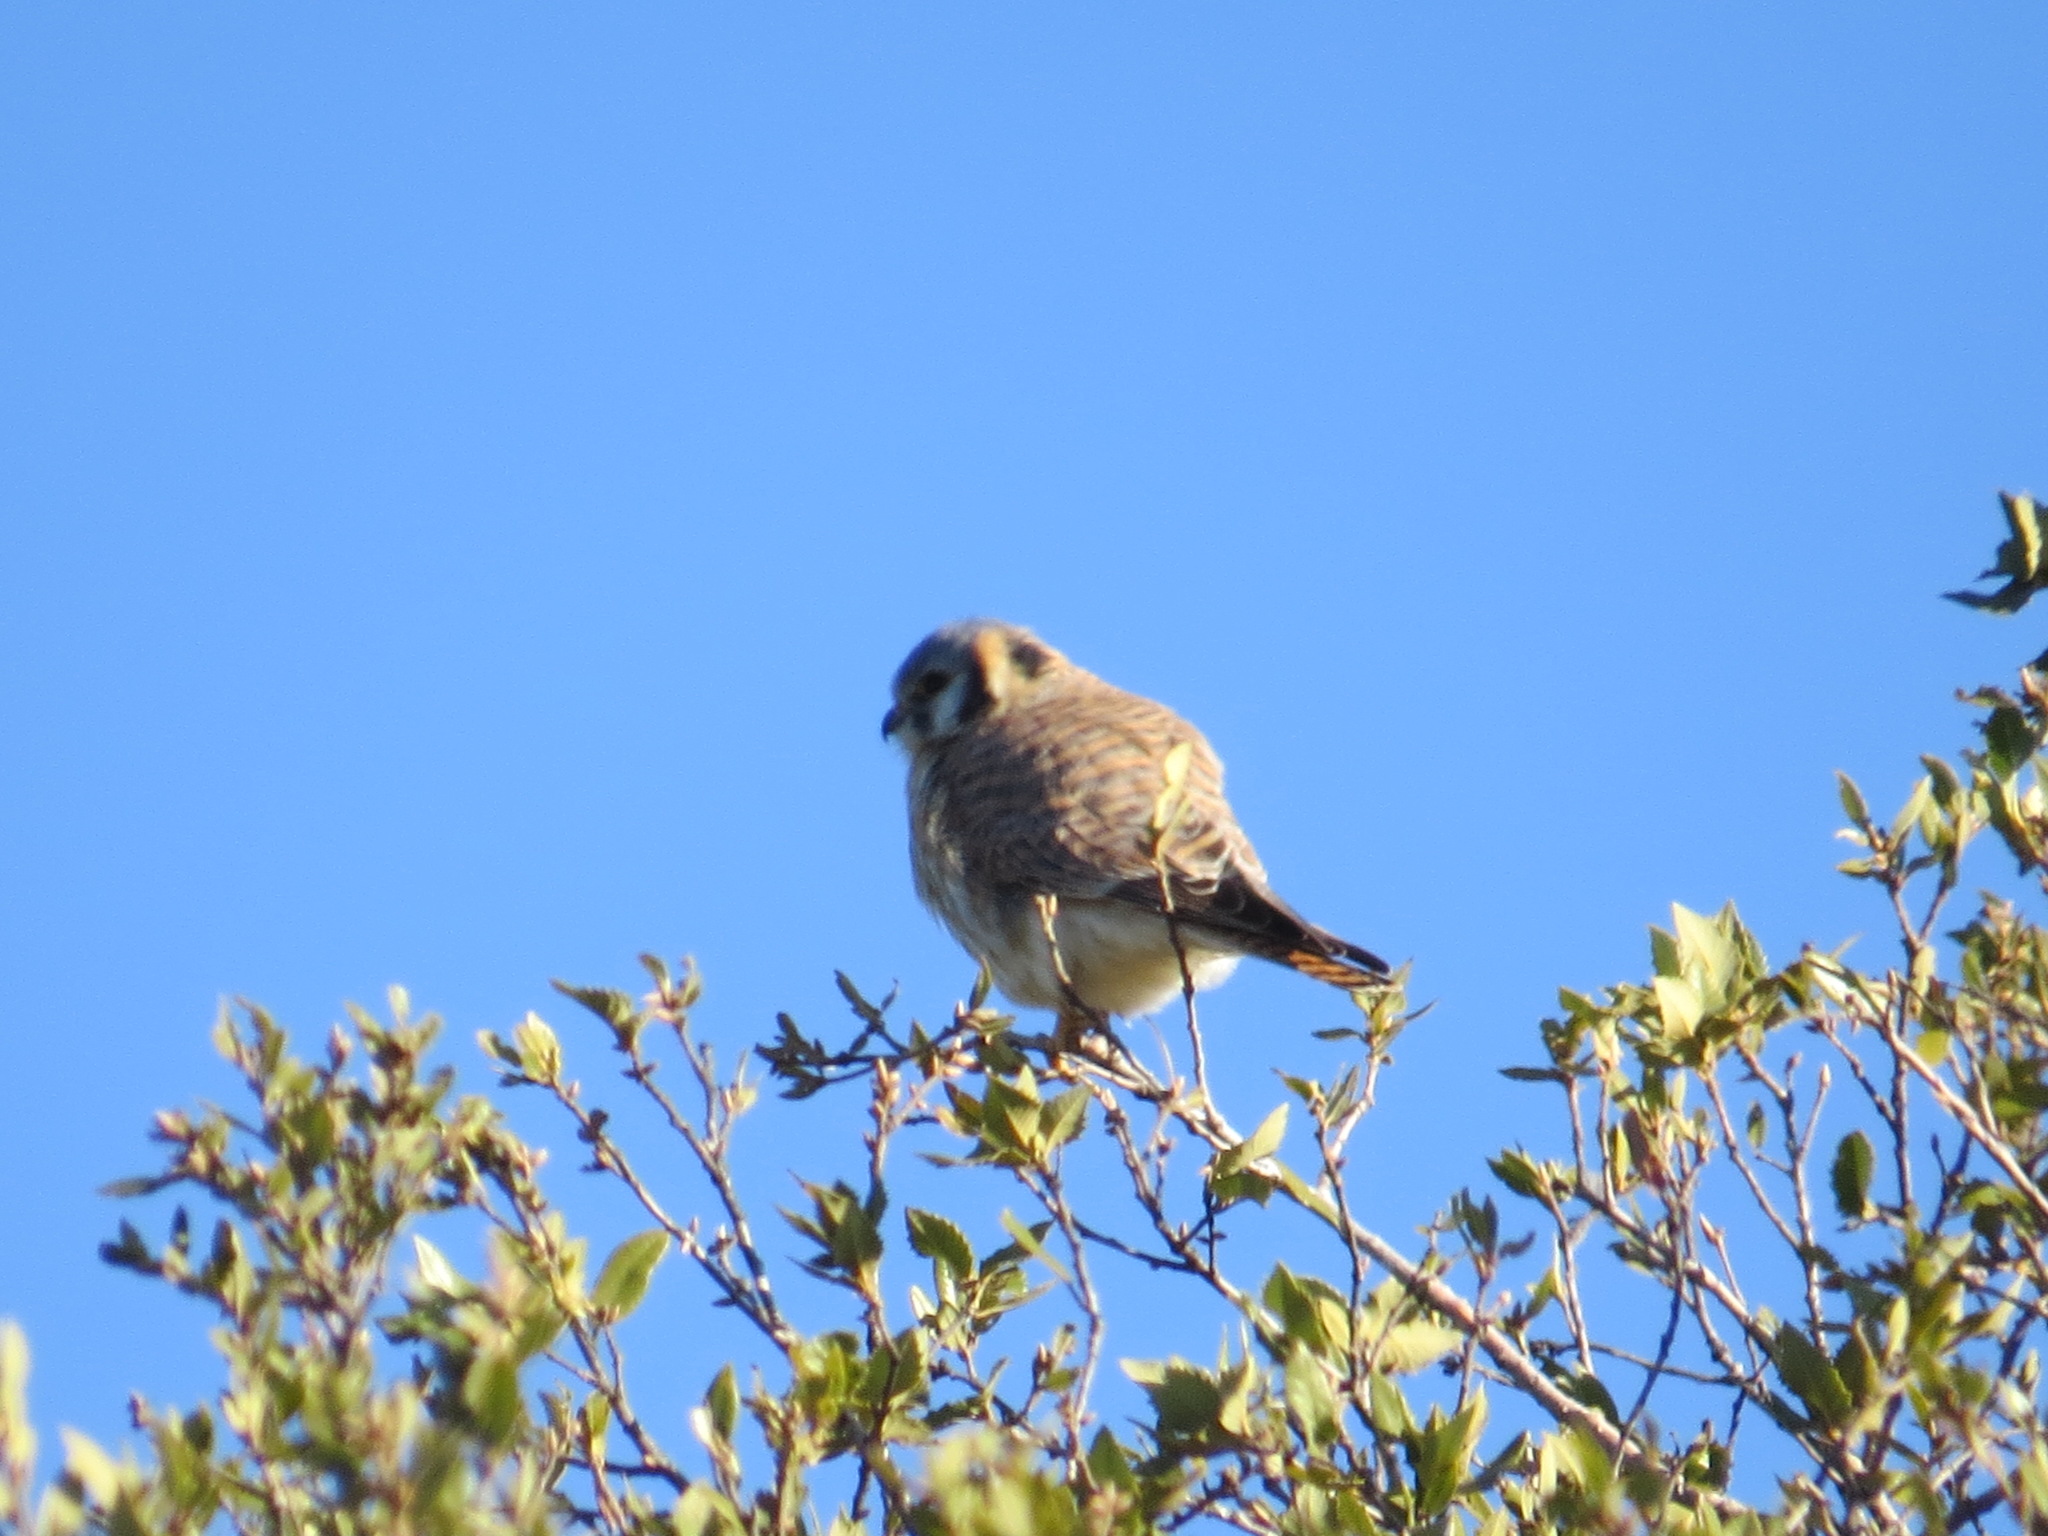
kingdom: Animalia
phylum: Chordata
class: Aves
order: Falconiformes
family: Falconidae
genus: Falco
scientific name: Falco sparverius
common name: American kestrel
